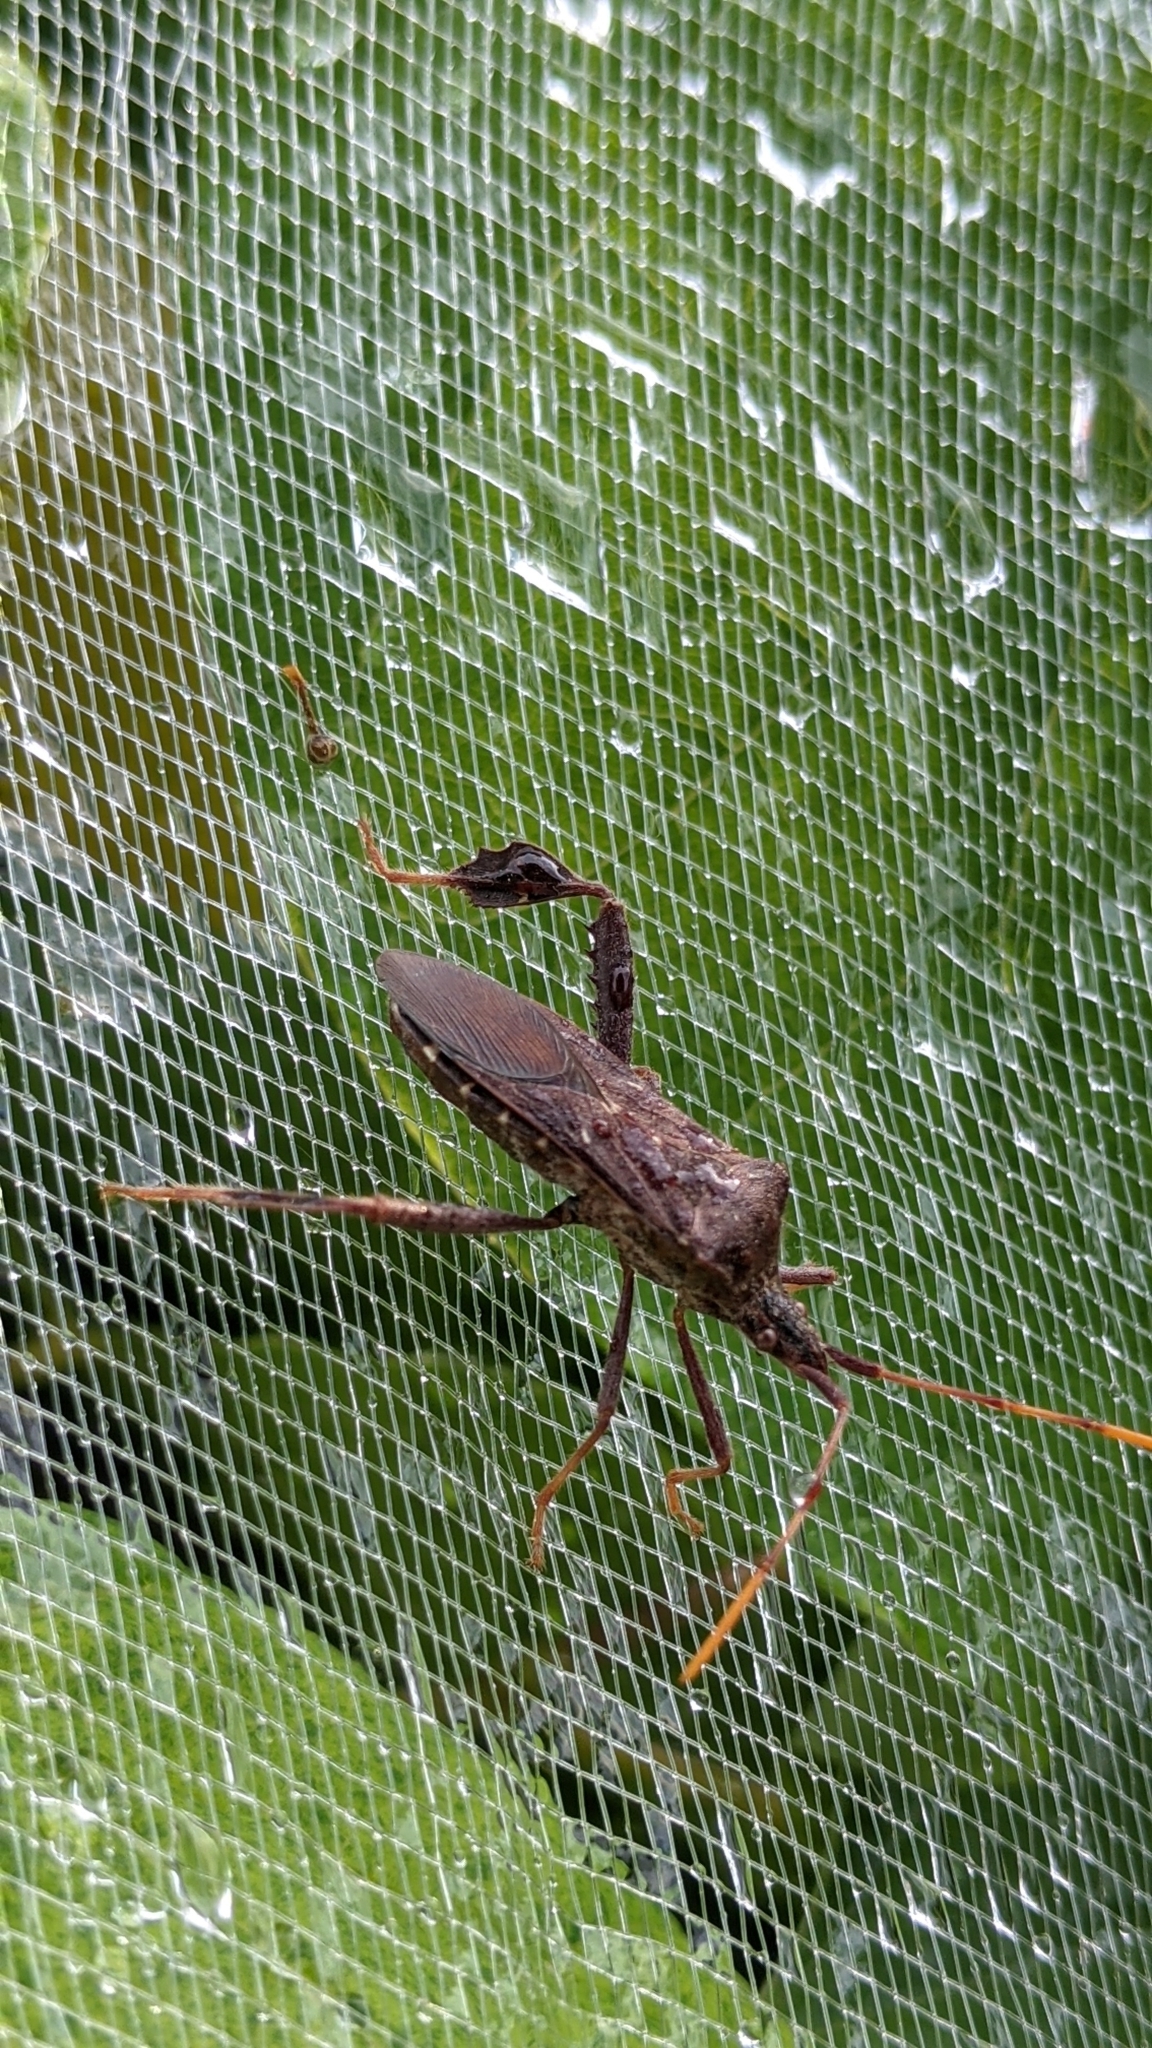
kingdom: Animalia
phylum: Arthropoda
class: Insecta
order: Hemiptera
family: Coreidae
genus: Leptoglossus
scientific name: Leptoglossus oppositus
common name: Northern leaf-footed bug
